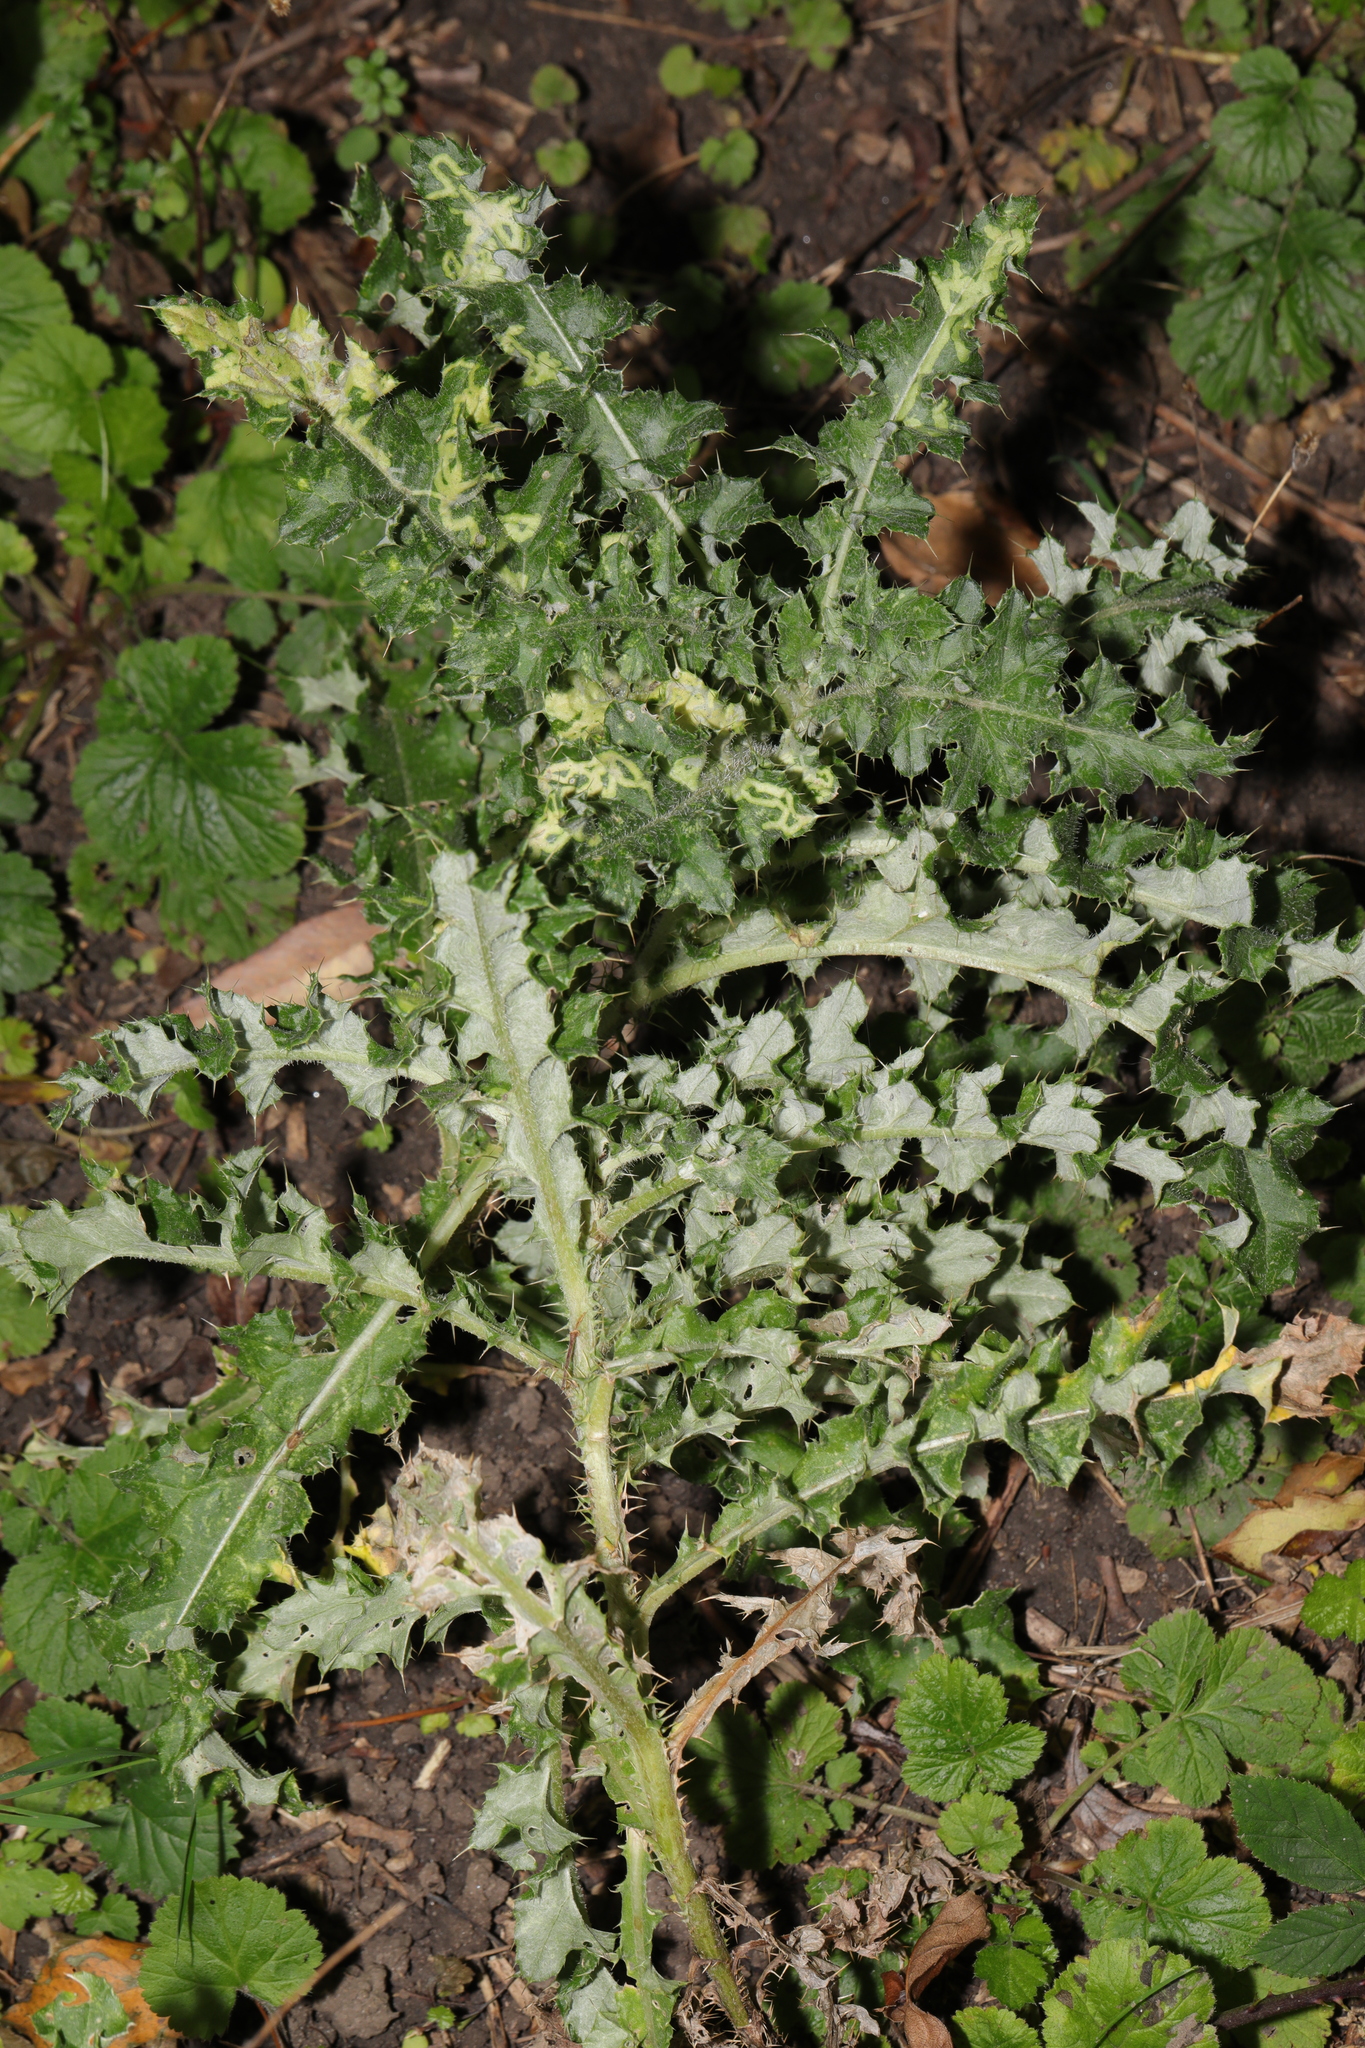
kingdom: Plantae
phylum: Tracheophyta
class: Magnoliopsida
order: Asterales
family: Asteraceae
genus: Cirsium
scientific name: Cirsium arvense
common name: Creeping thistle
